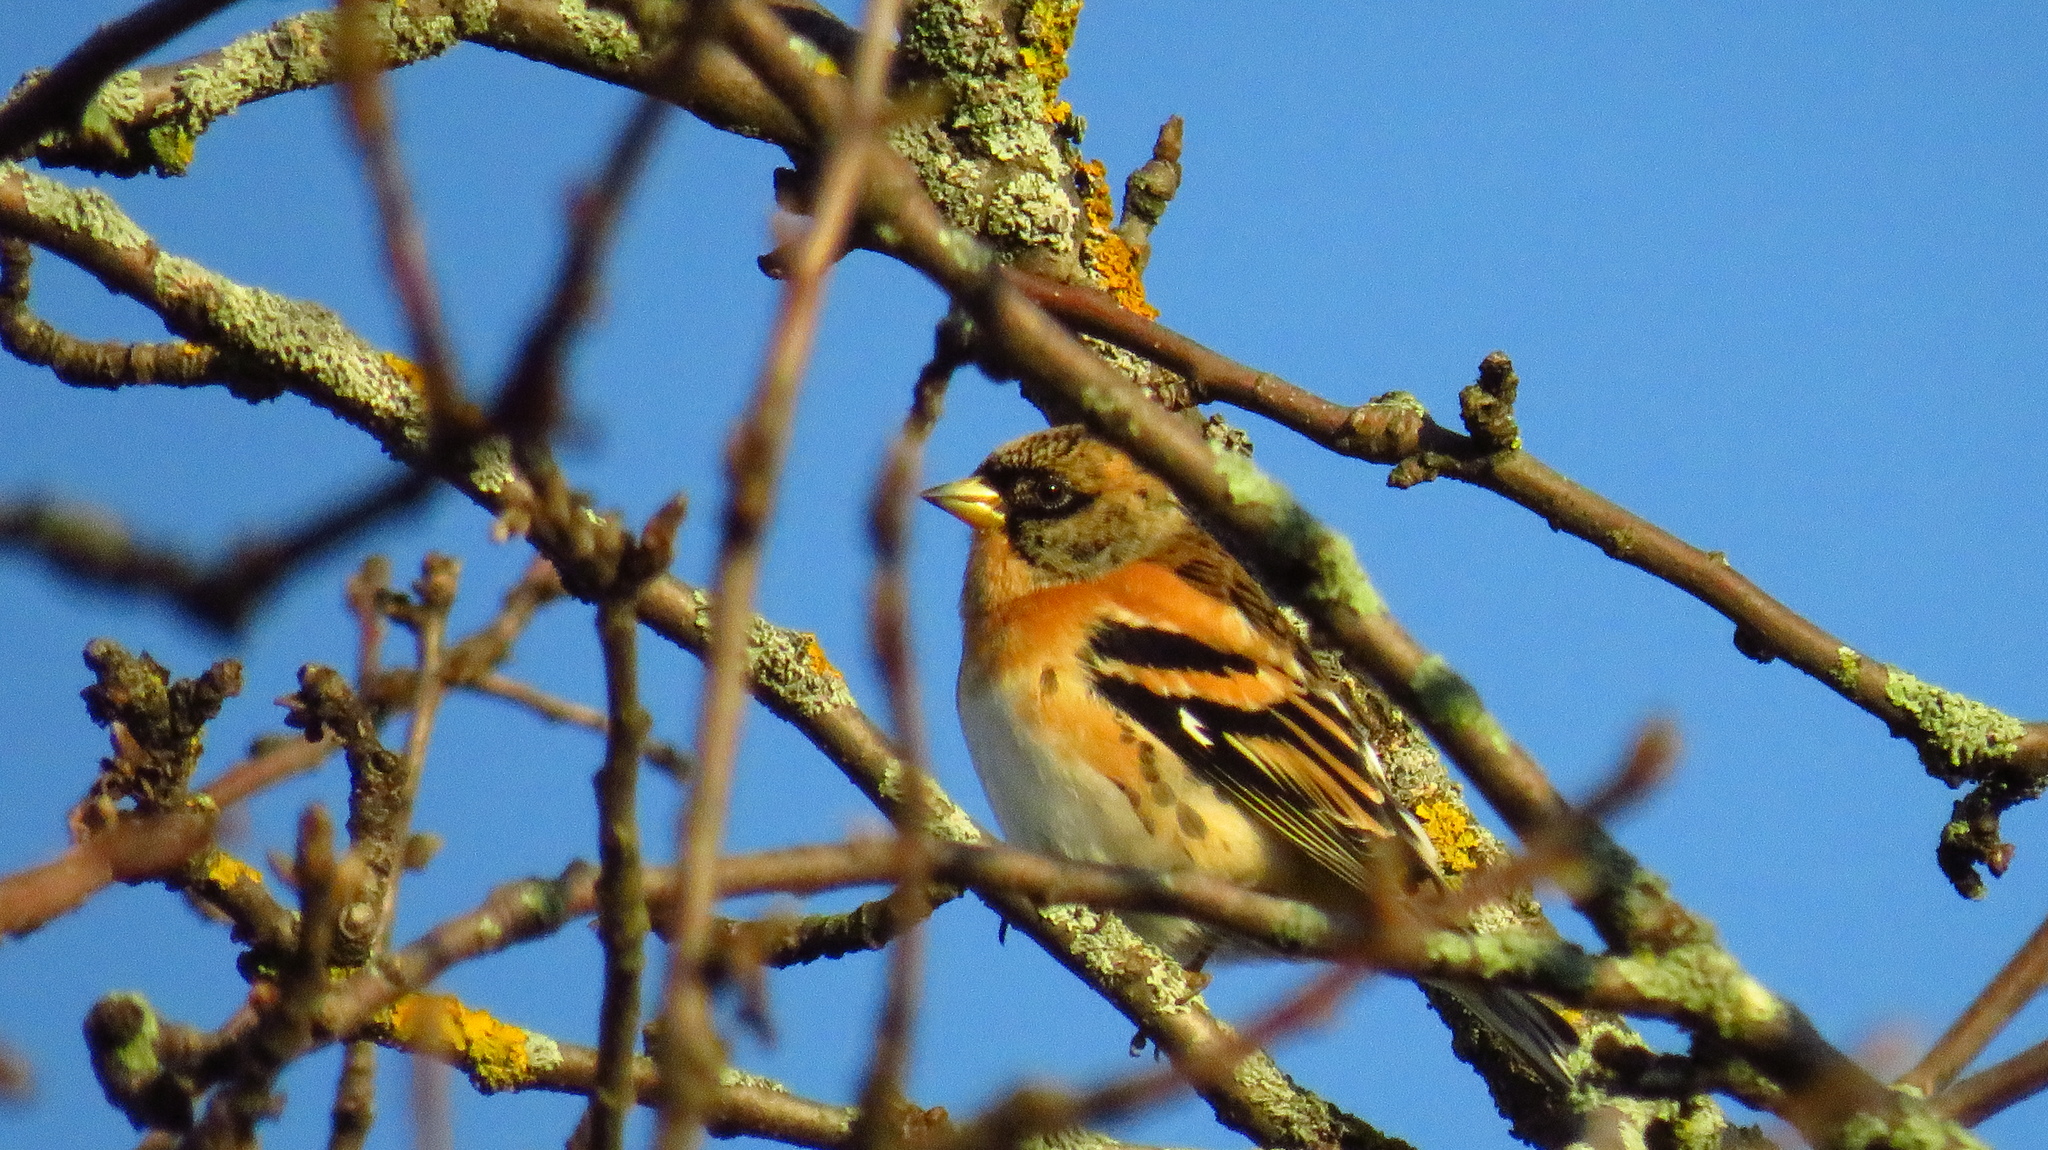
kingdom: Animalia
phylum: Chordata
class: Aves
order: Passeriformes
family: Fringillidae
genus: Fringilla
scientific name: Fringilla montifringilla
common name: Brambling
